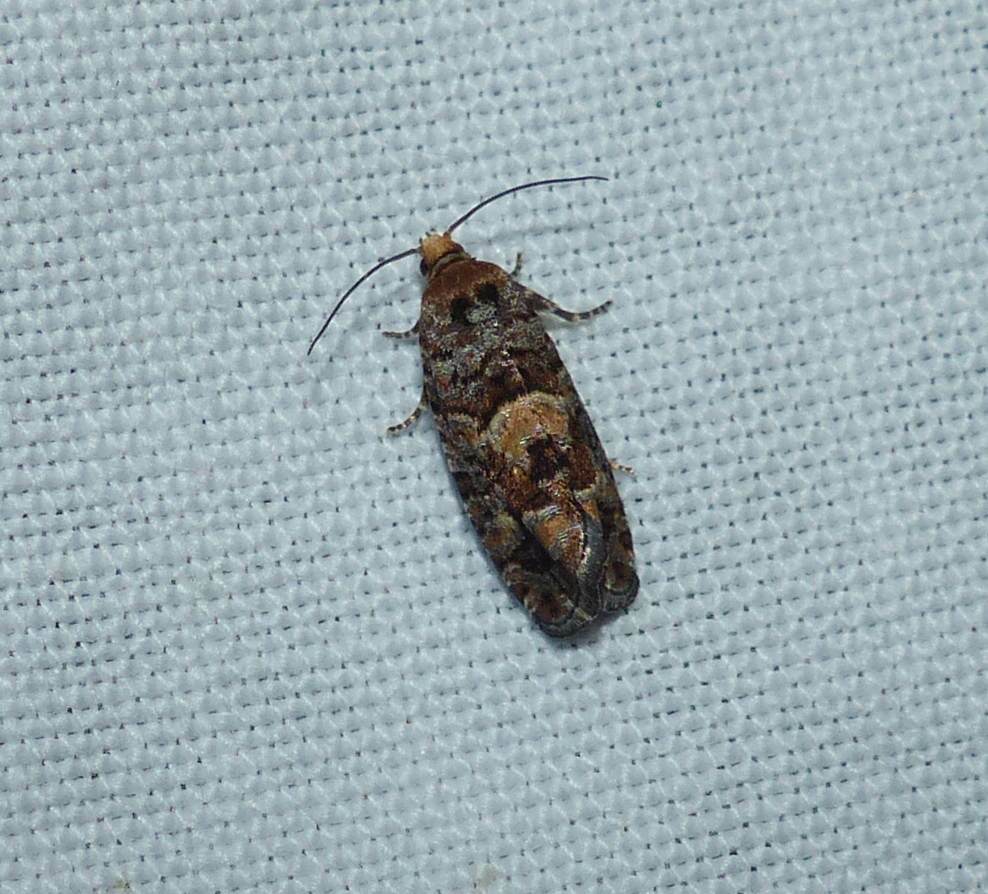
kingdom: Animalia
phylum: Arthropoda
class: Insecta
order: Lepidoptera
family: Tortricidae
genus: Eucopina
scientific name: Eucopina tocullionana
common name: White pinecone borer moth
